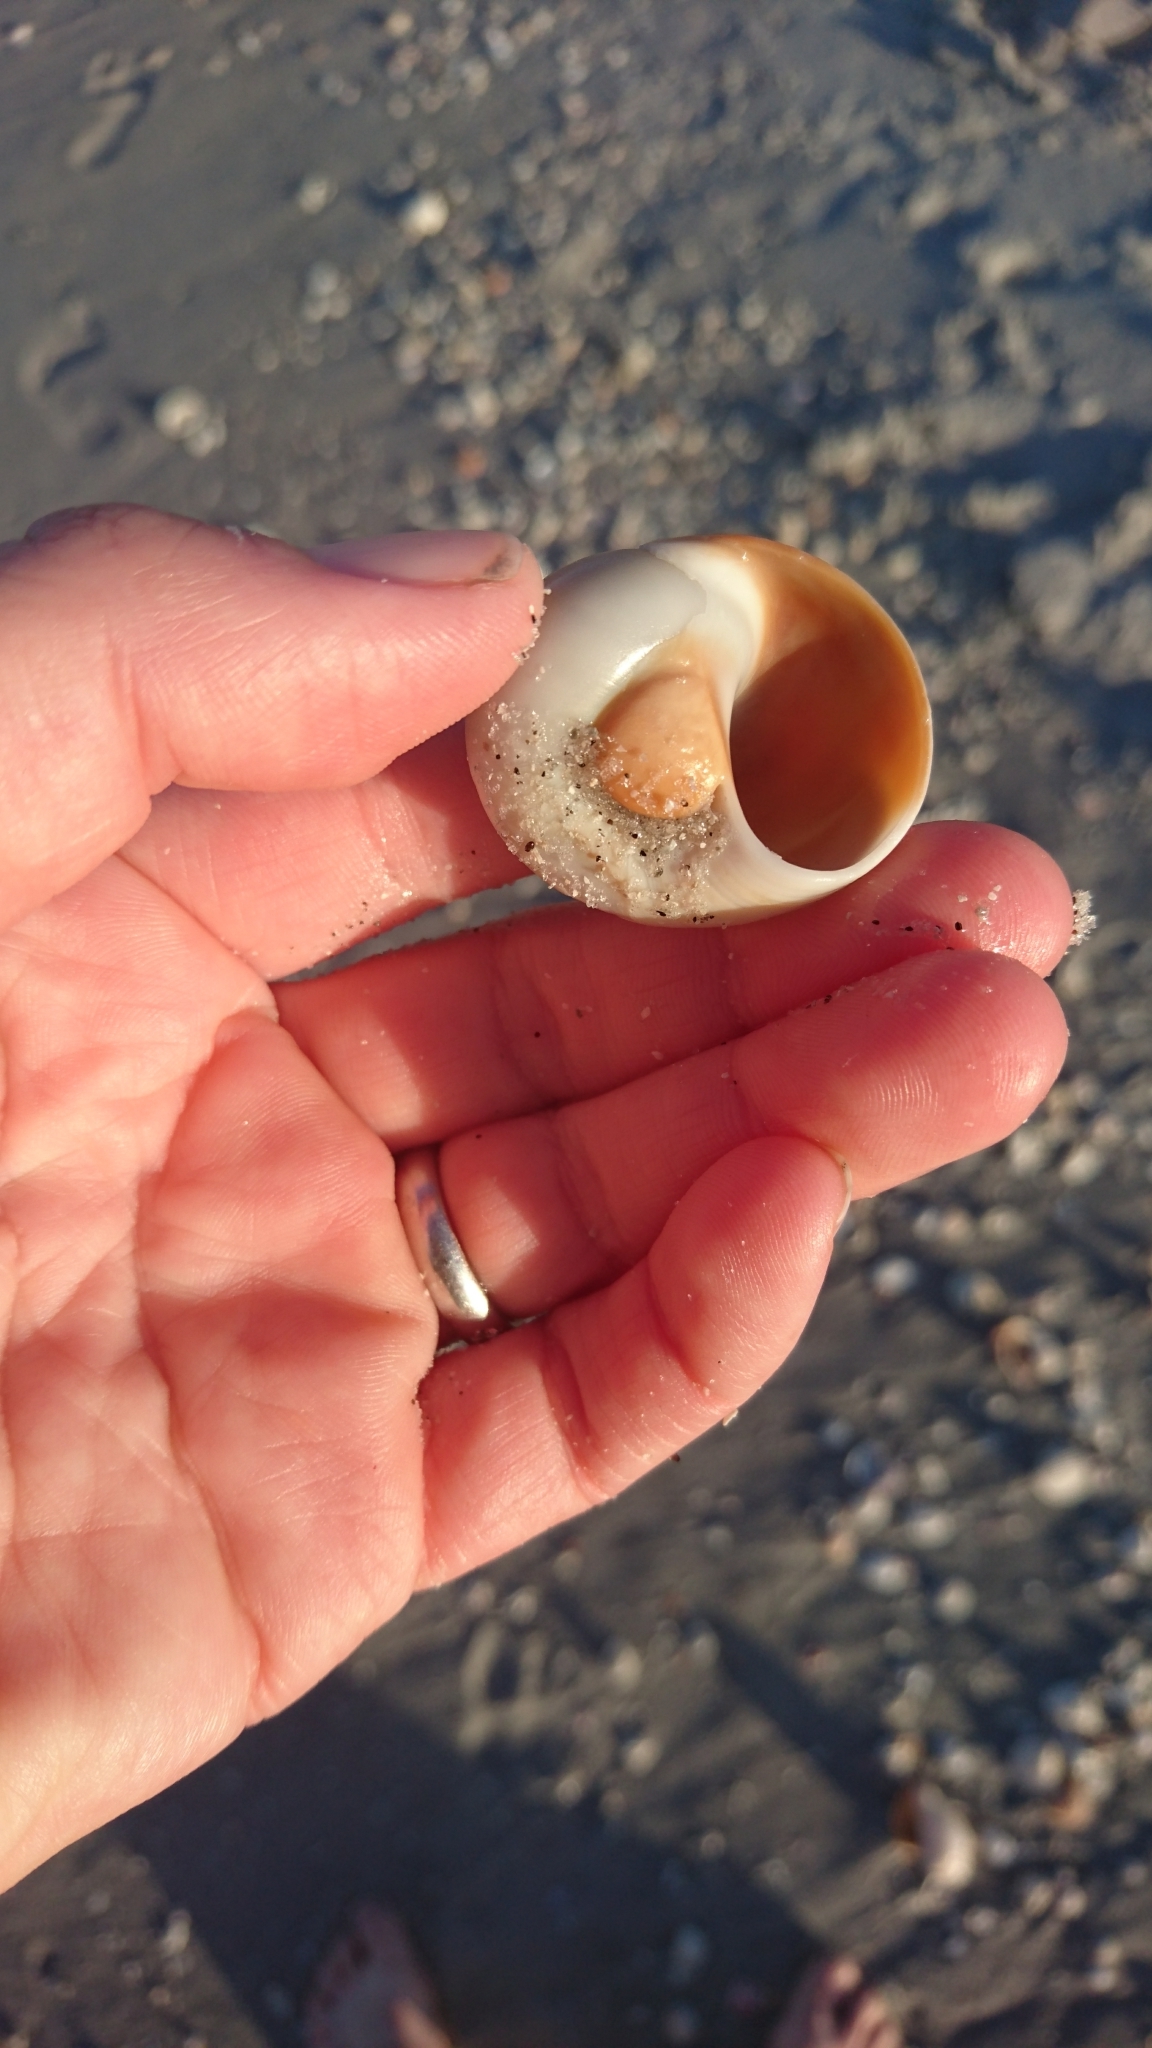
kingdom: Animalia
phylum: Mollusca
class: Gastropoda
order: Littorinimorpha
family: Naticidae
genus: Neverita
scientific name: Neverita duplicata
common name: Lobed moonsnail
